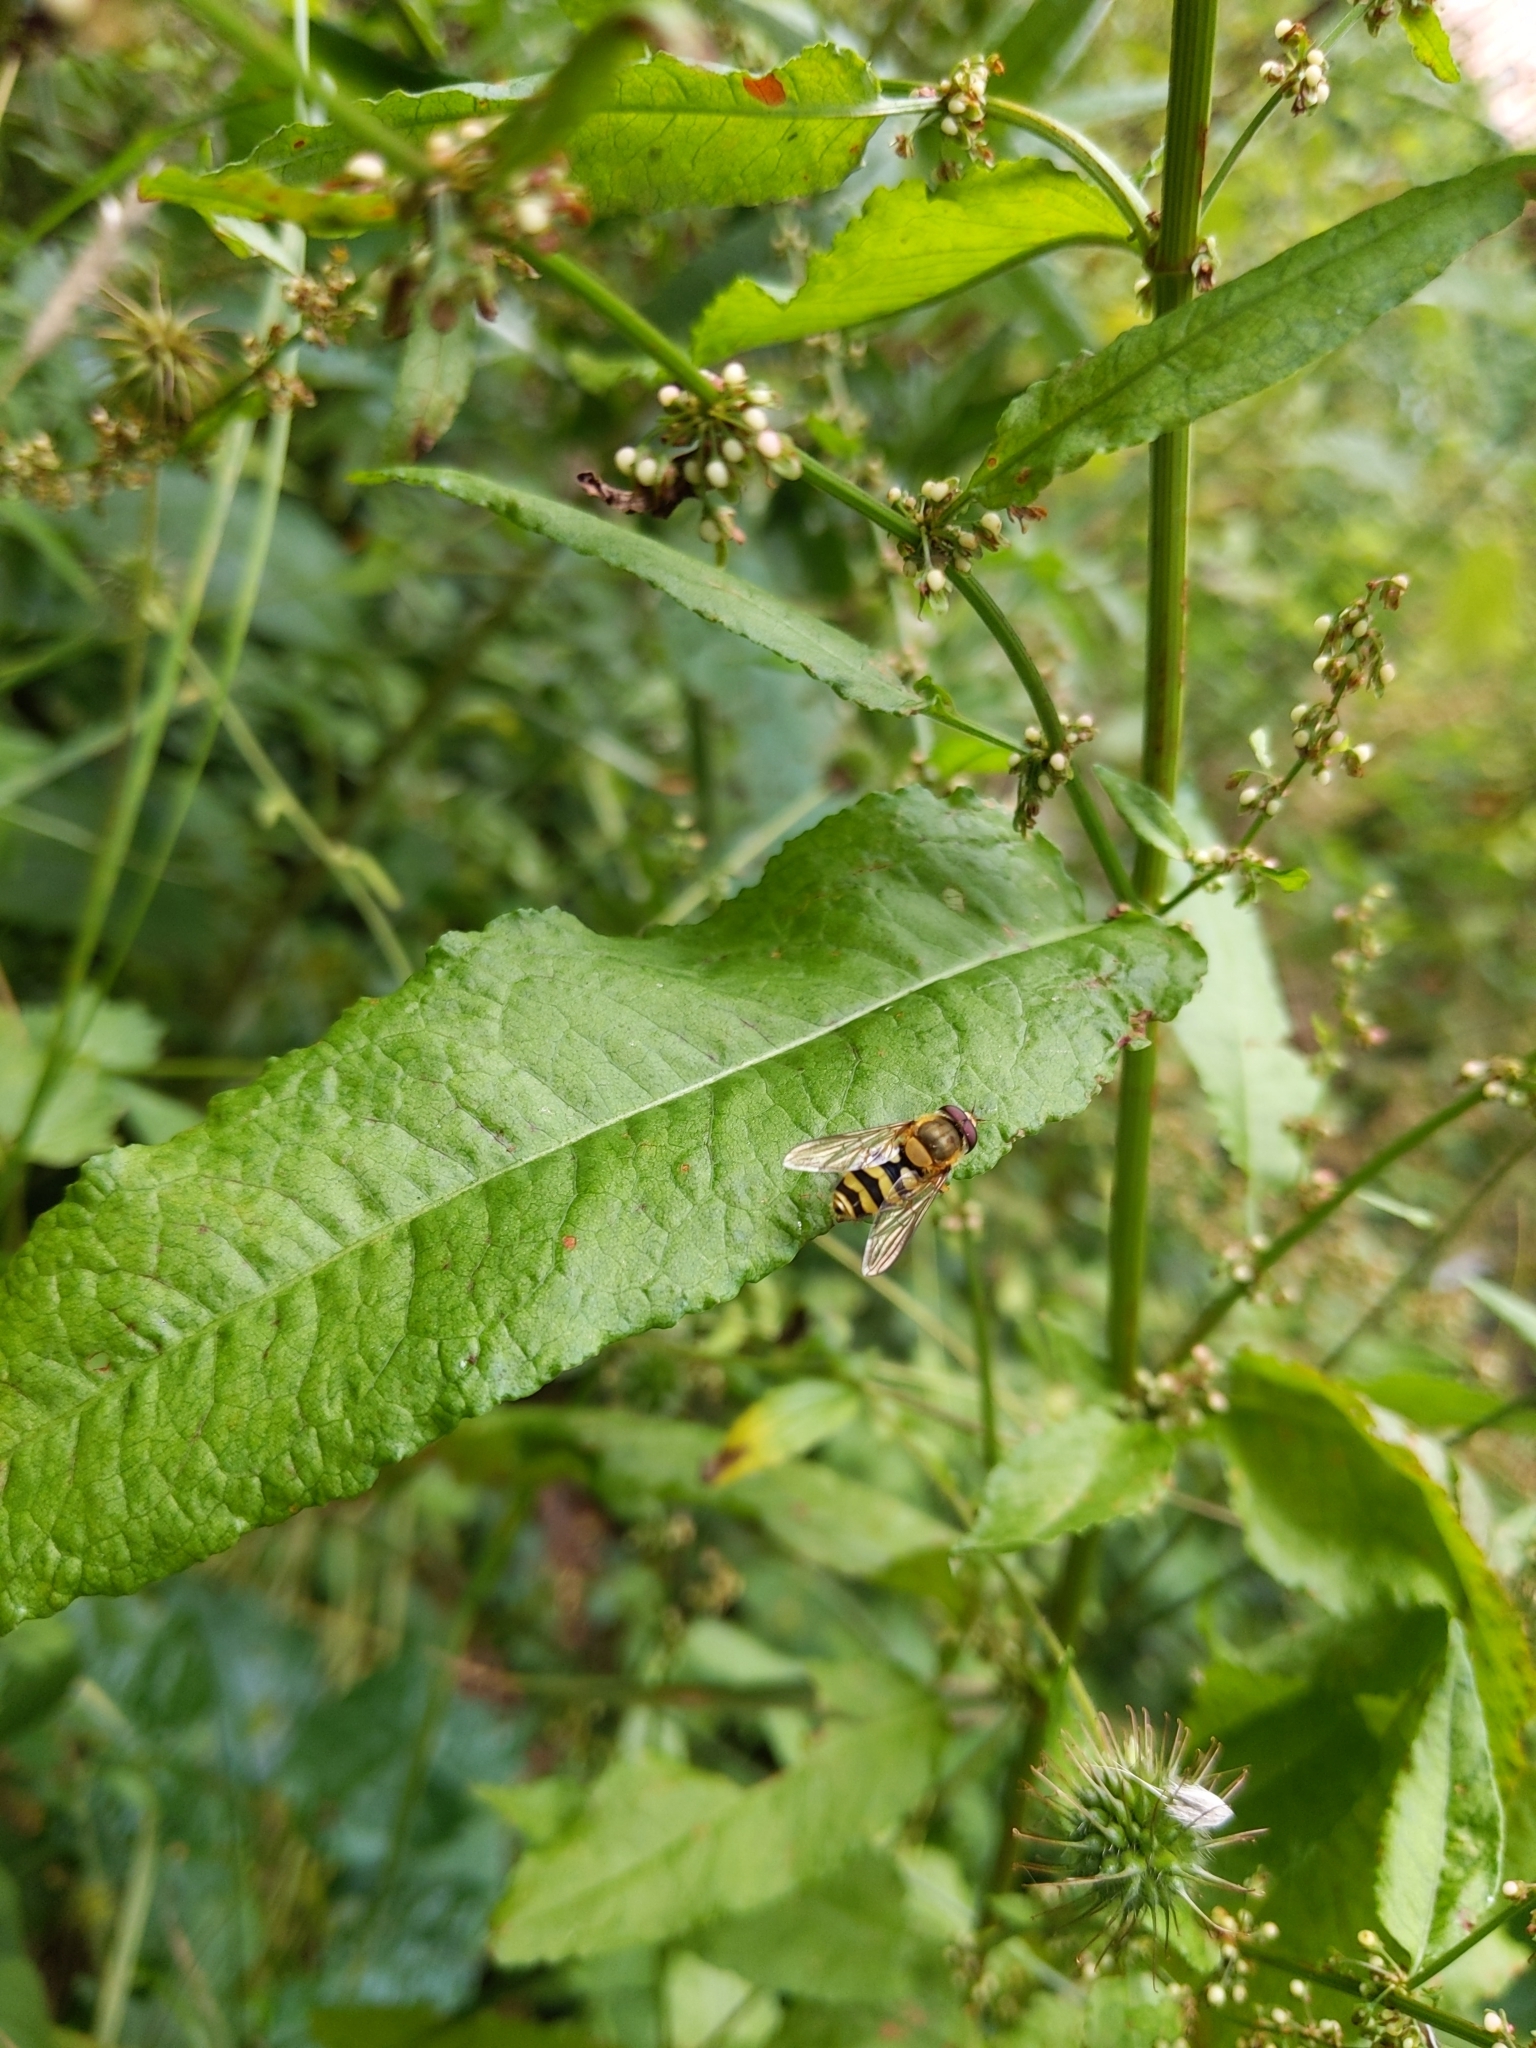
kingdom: Animalia
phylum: Arthropoda
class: Insecta
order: Diptera
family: Syrphidae
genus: Syrphus
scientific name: Syrphus
